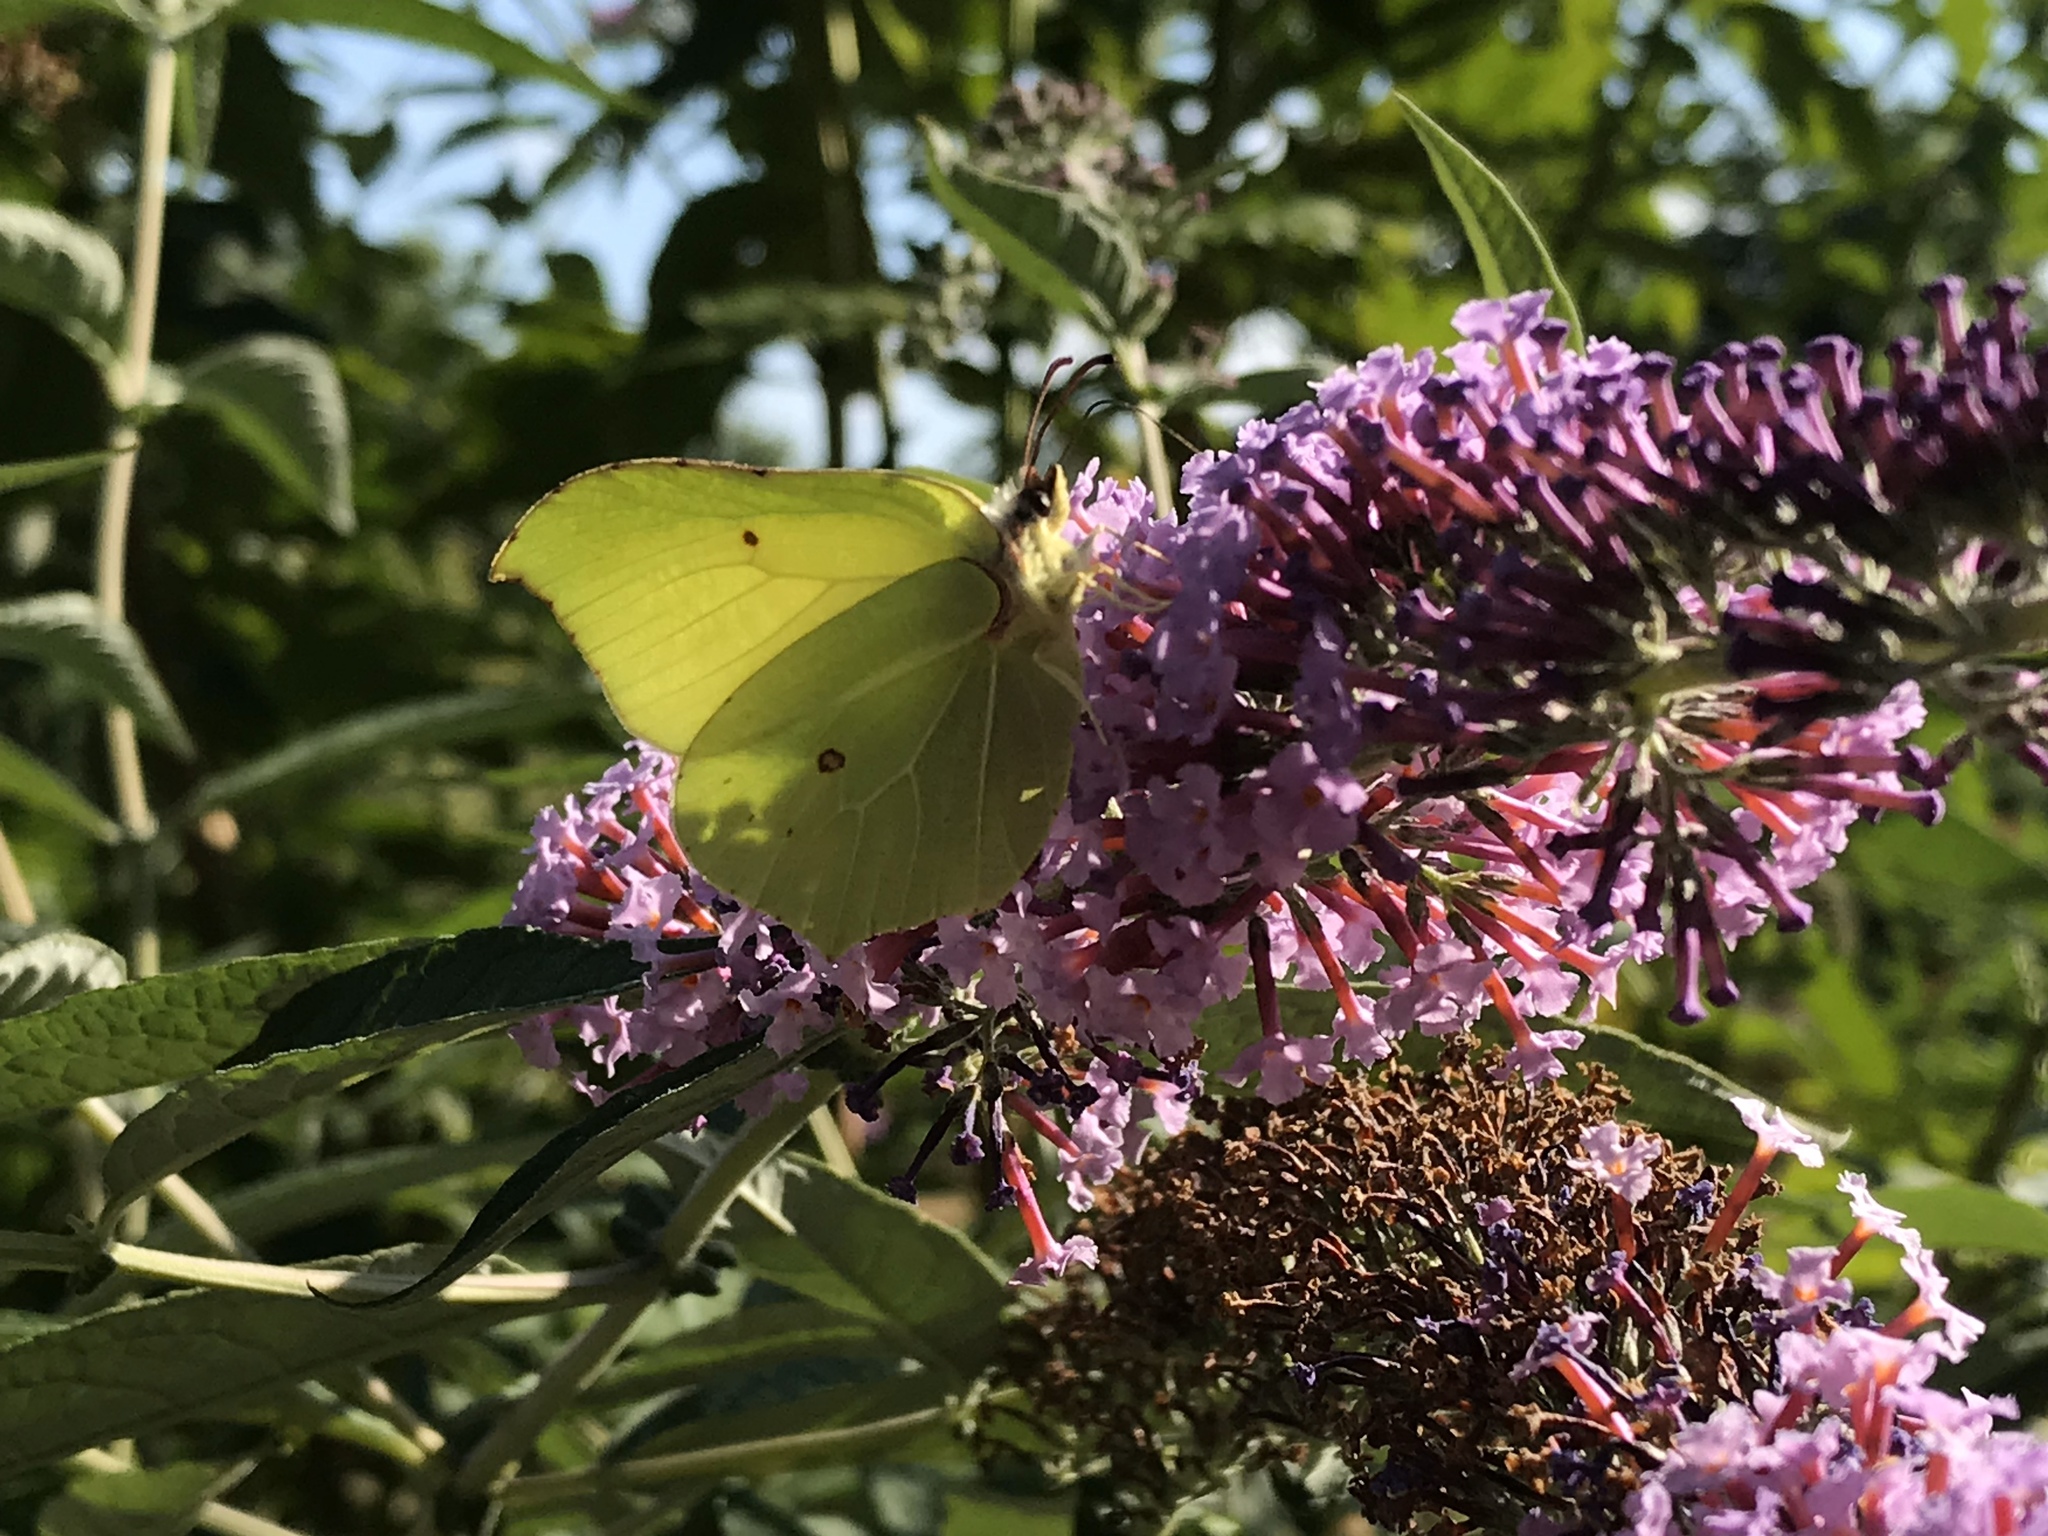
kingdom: Animalia
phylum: Arthropoda
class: Insecta
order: Lepidoptera
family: Pieridae
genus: Gonepteryx
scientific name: Gonepteryx rhamni
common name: Brimstone
